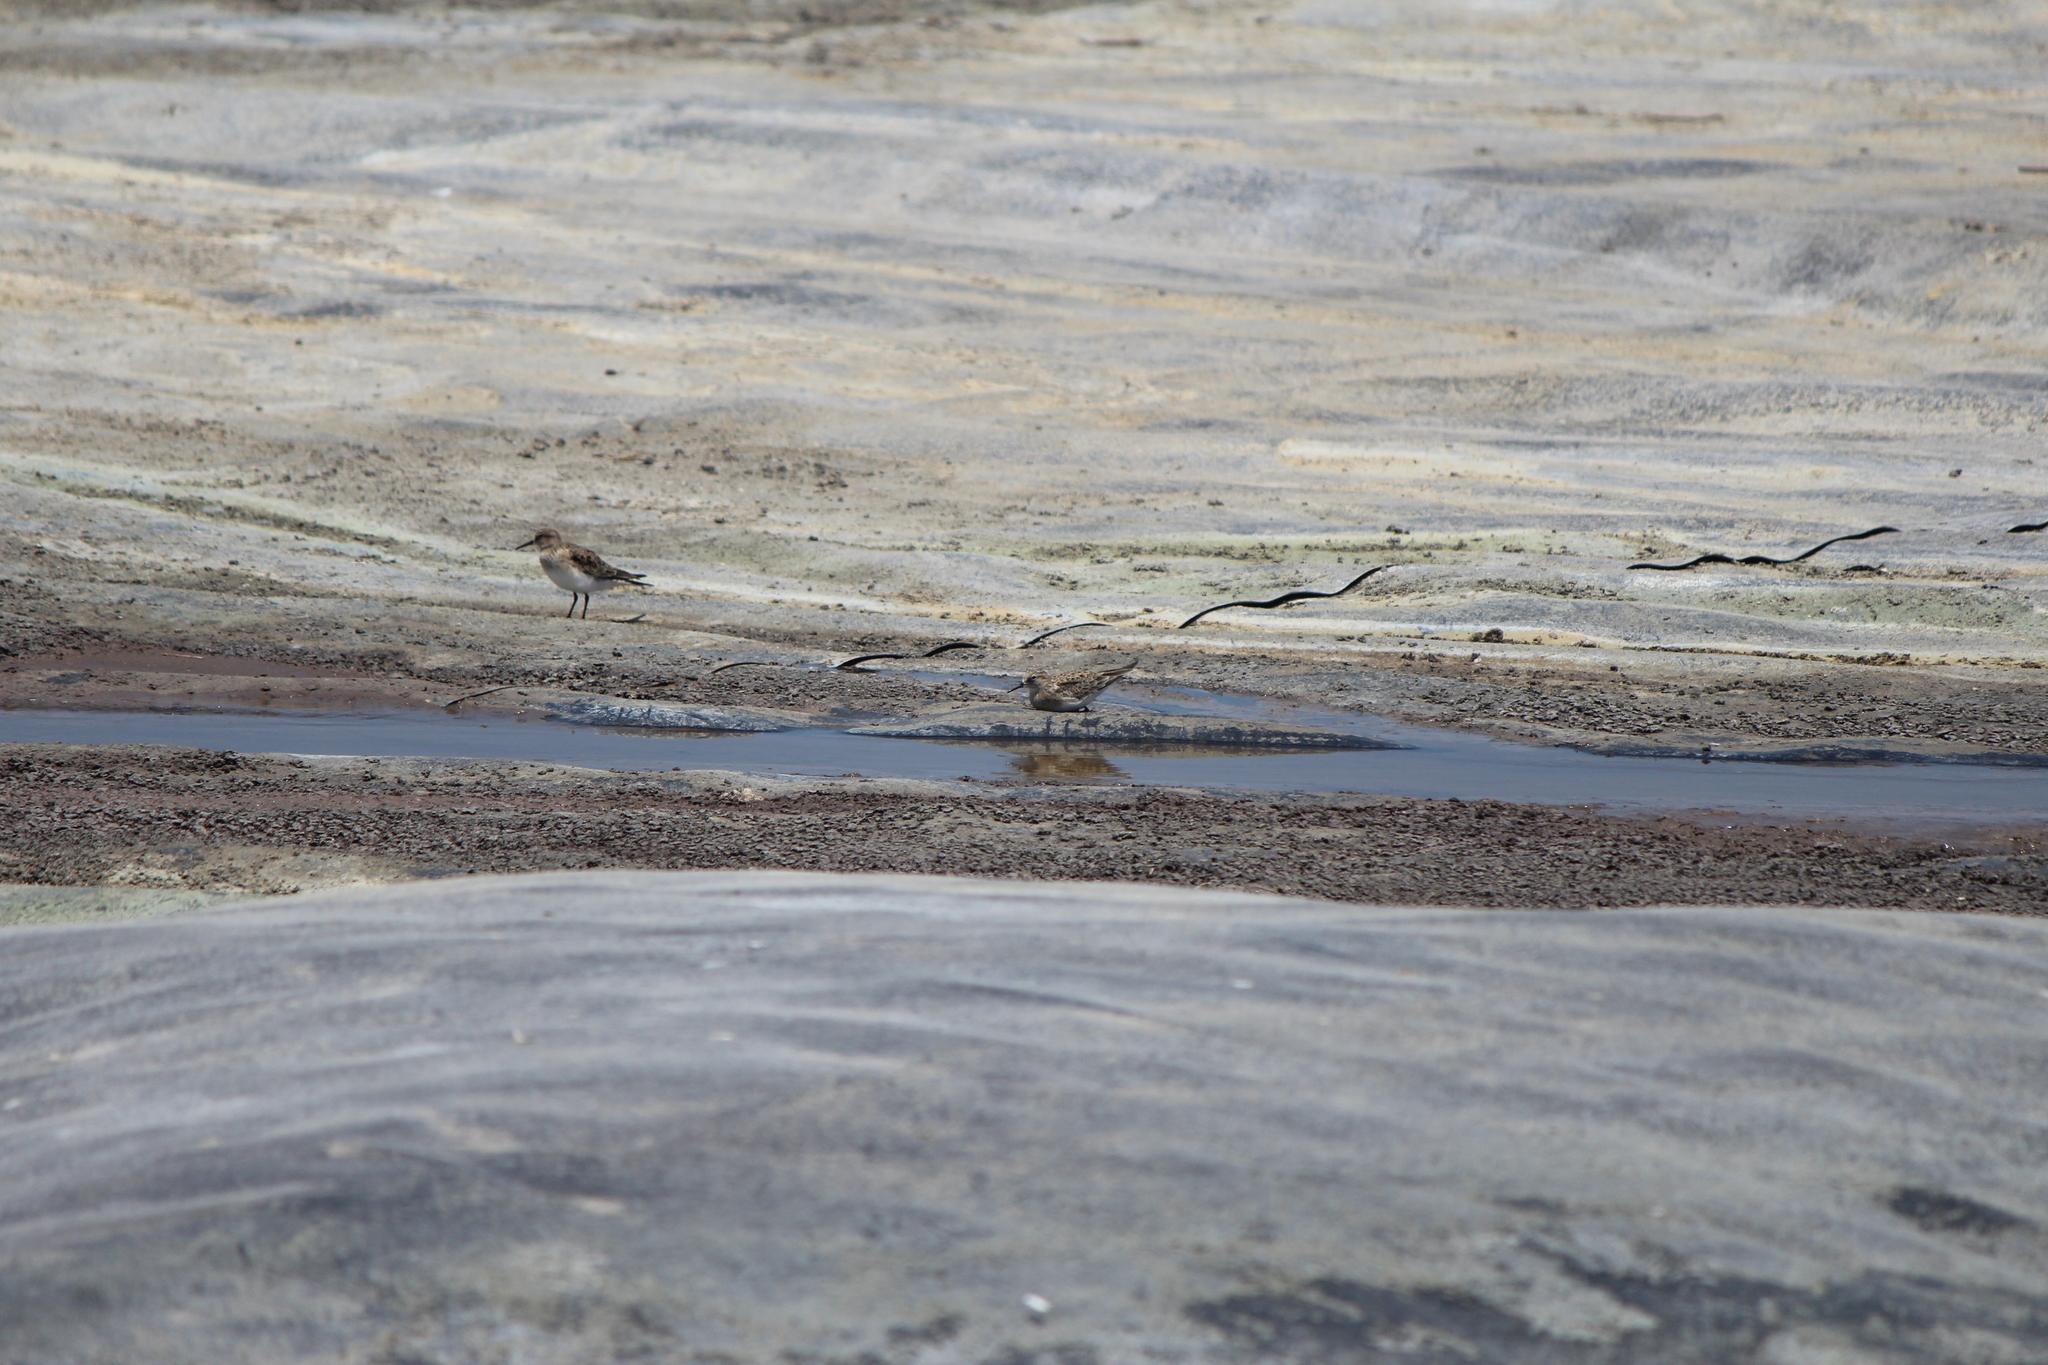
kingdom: Animalia
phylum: Chordata
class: Aves
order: Charadriiformes
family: Scolopacidae
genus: Calidris
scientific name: Calidris bairdii
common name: Baird's sandpiper
